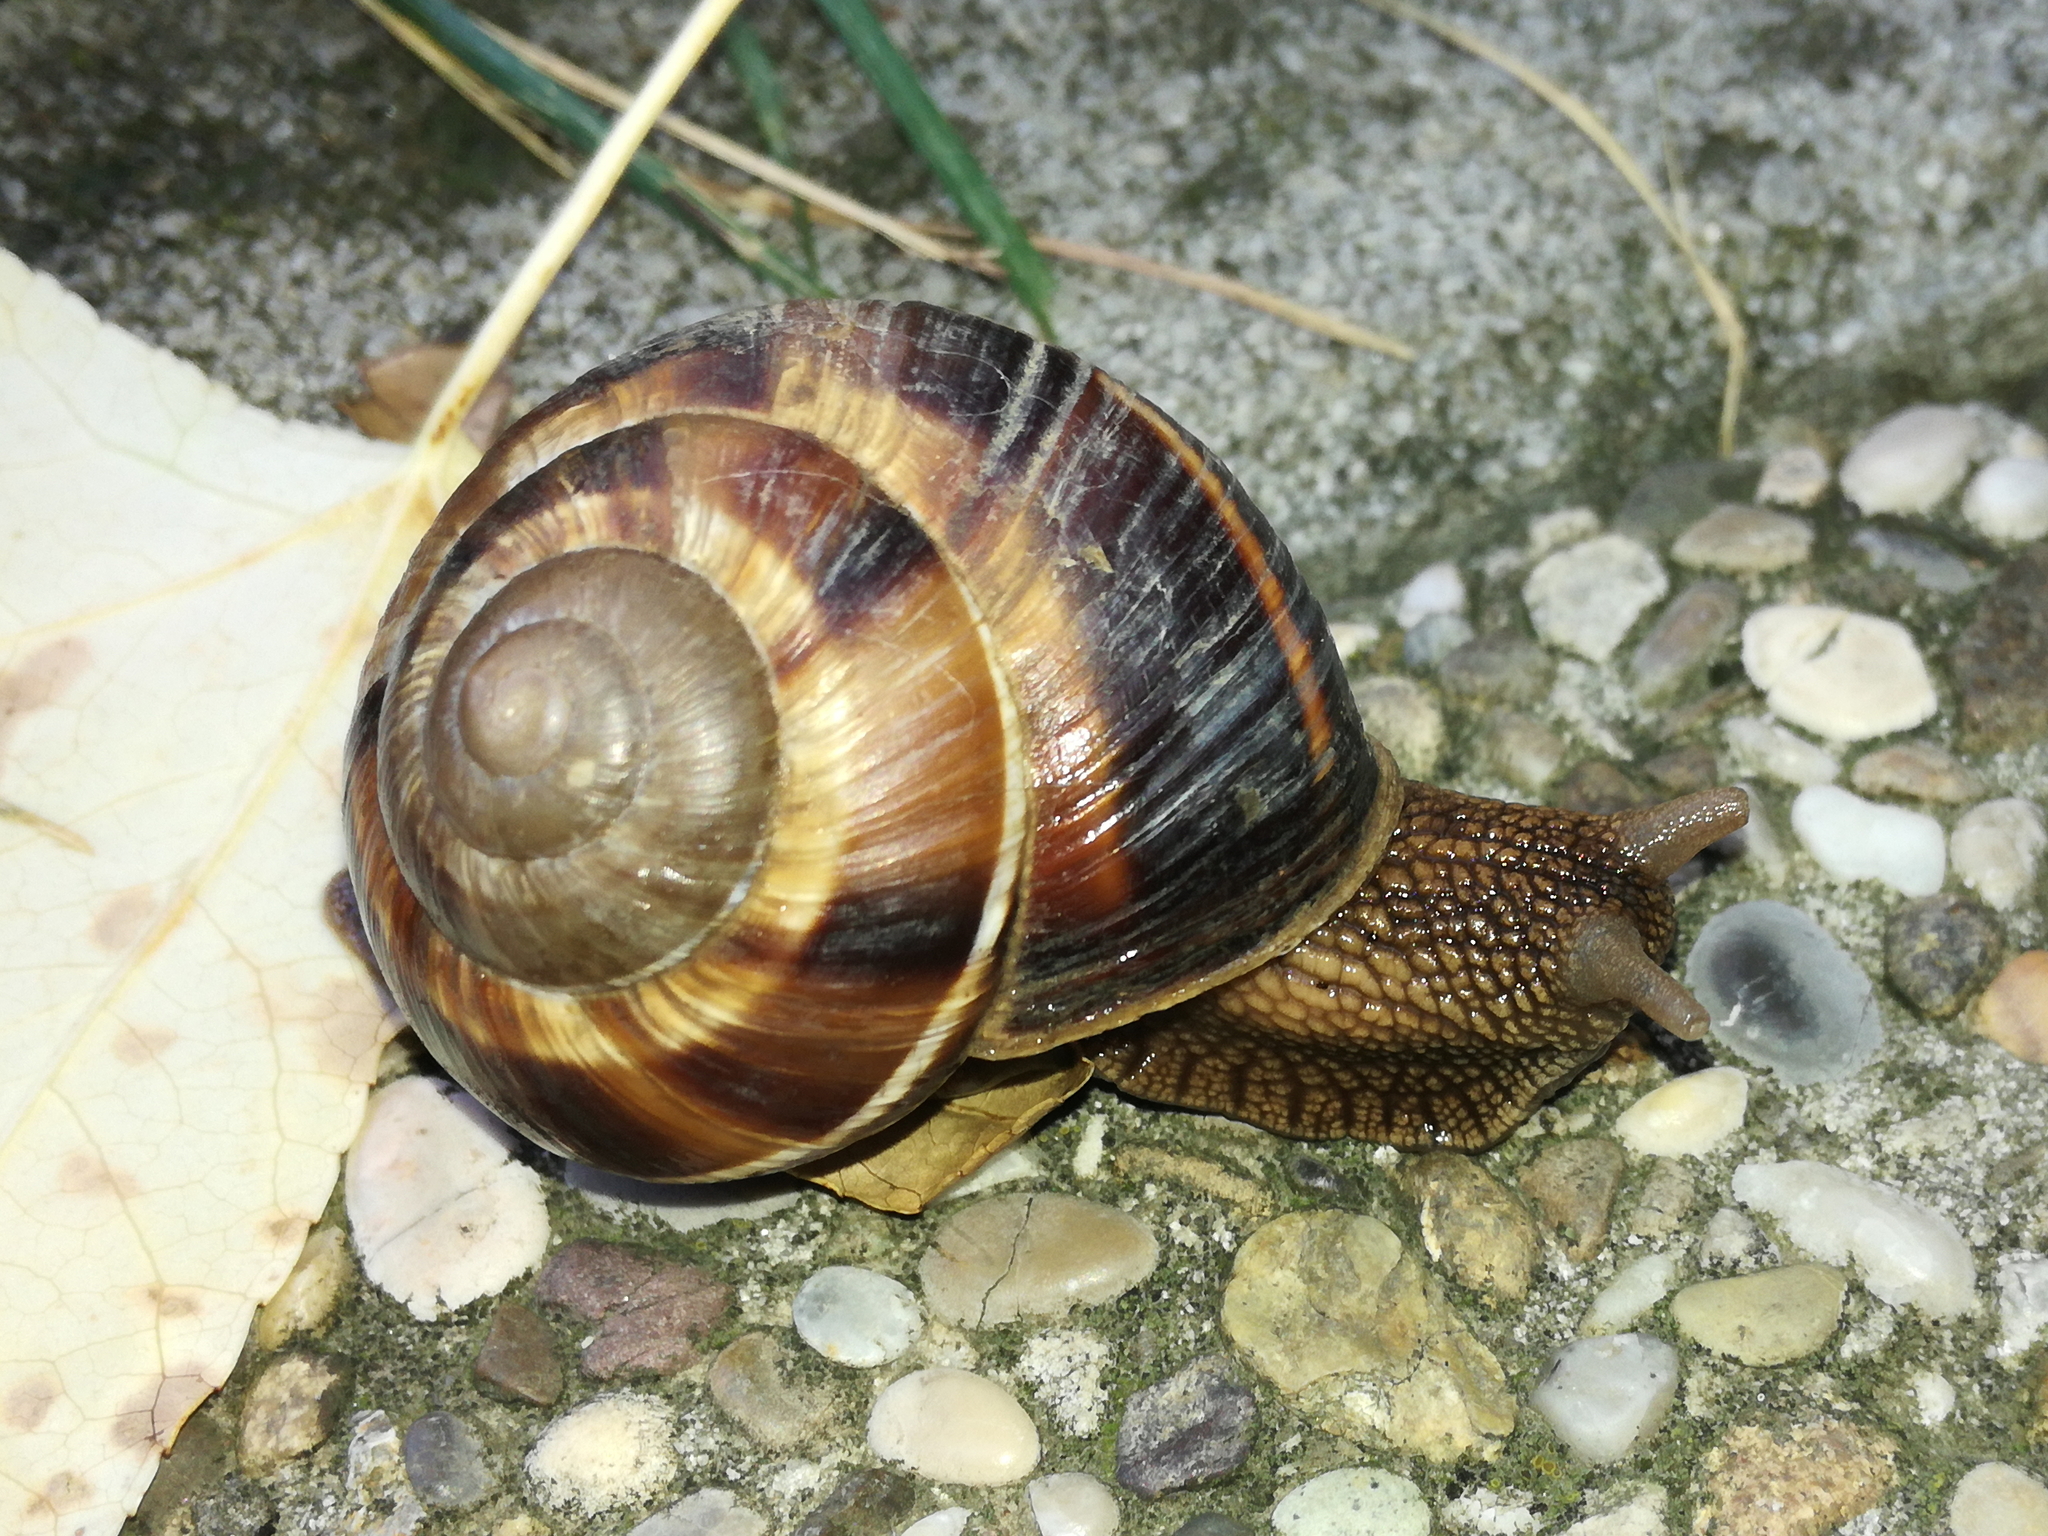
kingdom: Animalia
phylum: Mollusca
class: Gastropoda
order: Stylommatophora
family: Helicidae
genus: Helix
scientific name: Helix lucorum
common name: Turkish snail
